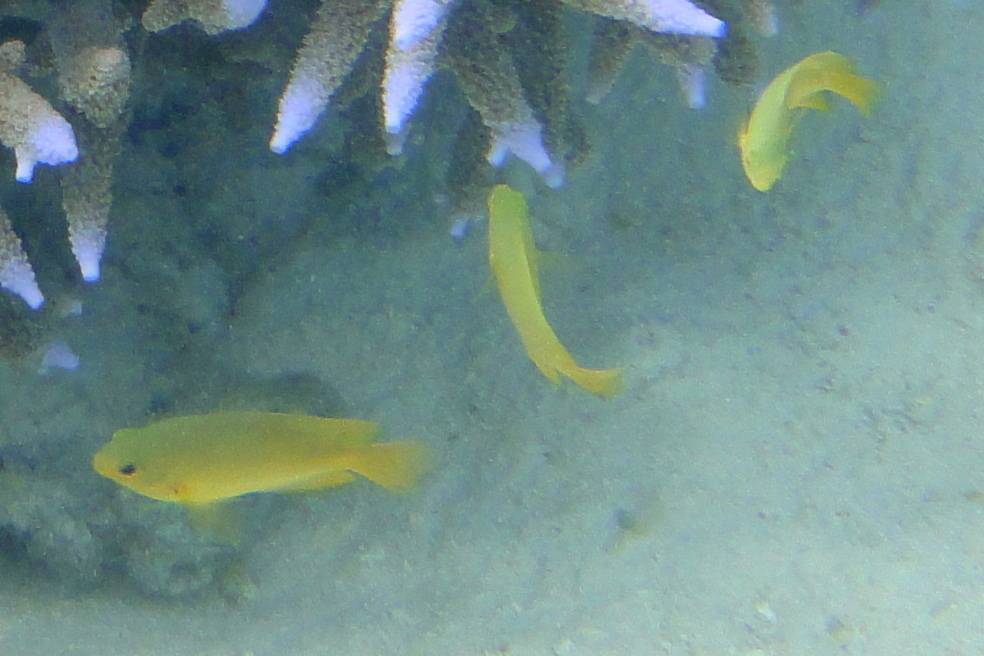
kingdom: Animalia
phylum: Chordata
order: Perciformes
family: Pomacentridae
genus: Pomacentrus
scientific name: Pomacentrus moluccensis
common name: Lemon damsel
